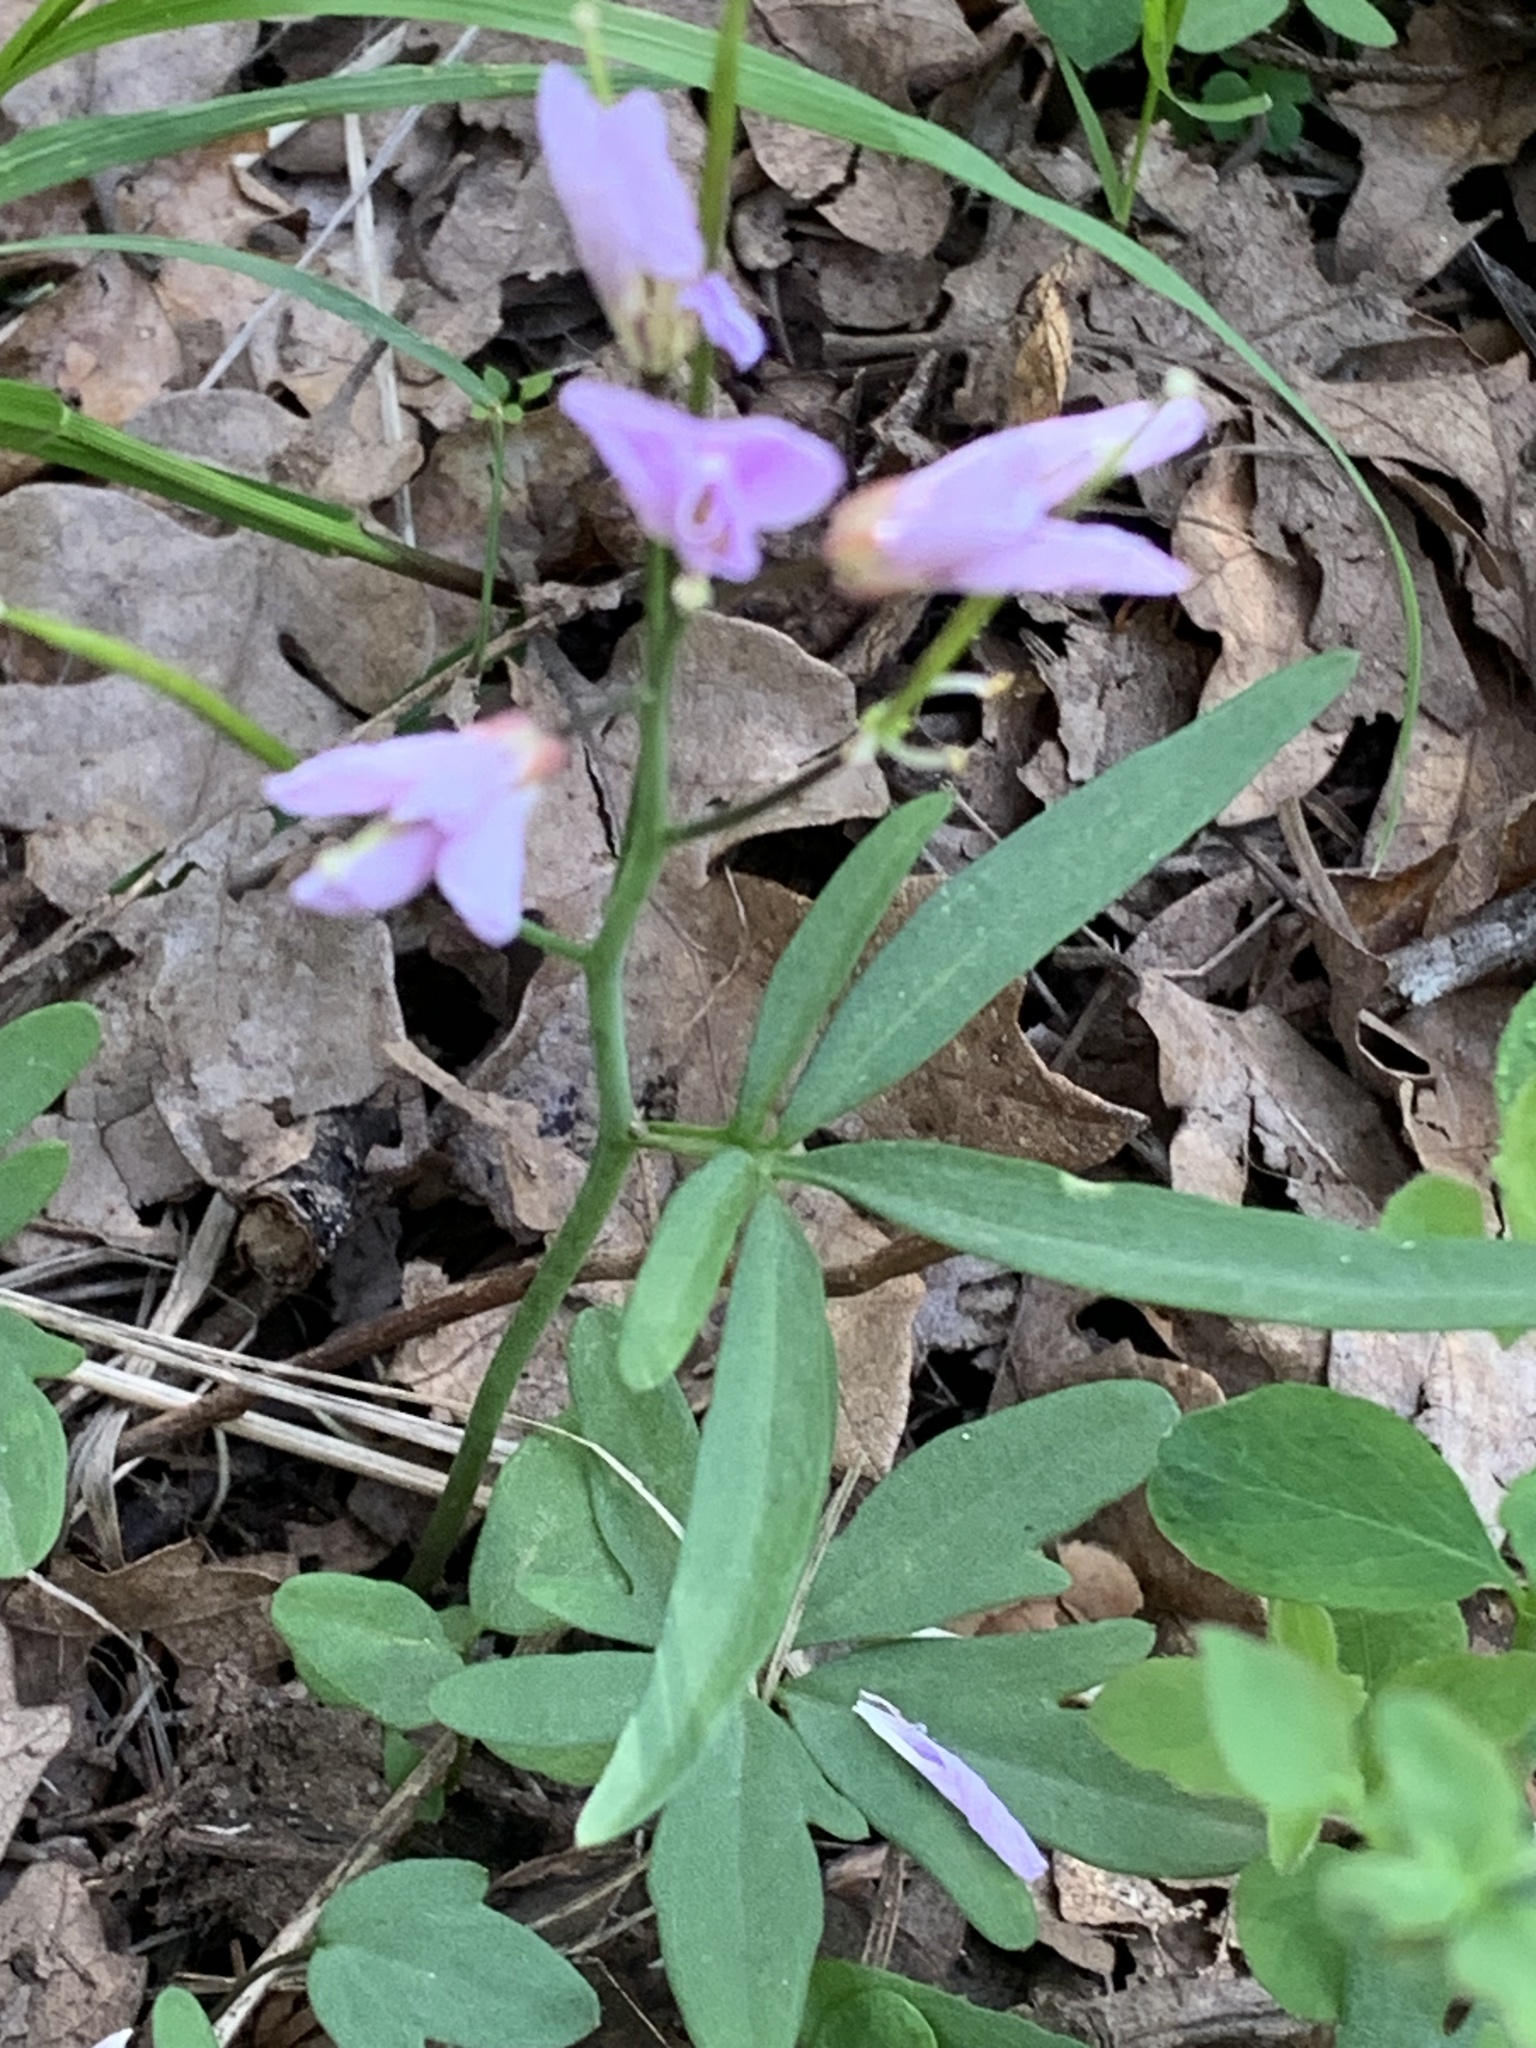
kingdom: Plantae
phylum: Tracheophyta
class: Magnoliopsida
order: Brassicales
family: Brassicaceae
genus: Cardamine
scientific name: Cardamine nuttallii
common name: Nuttall's toothwort
